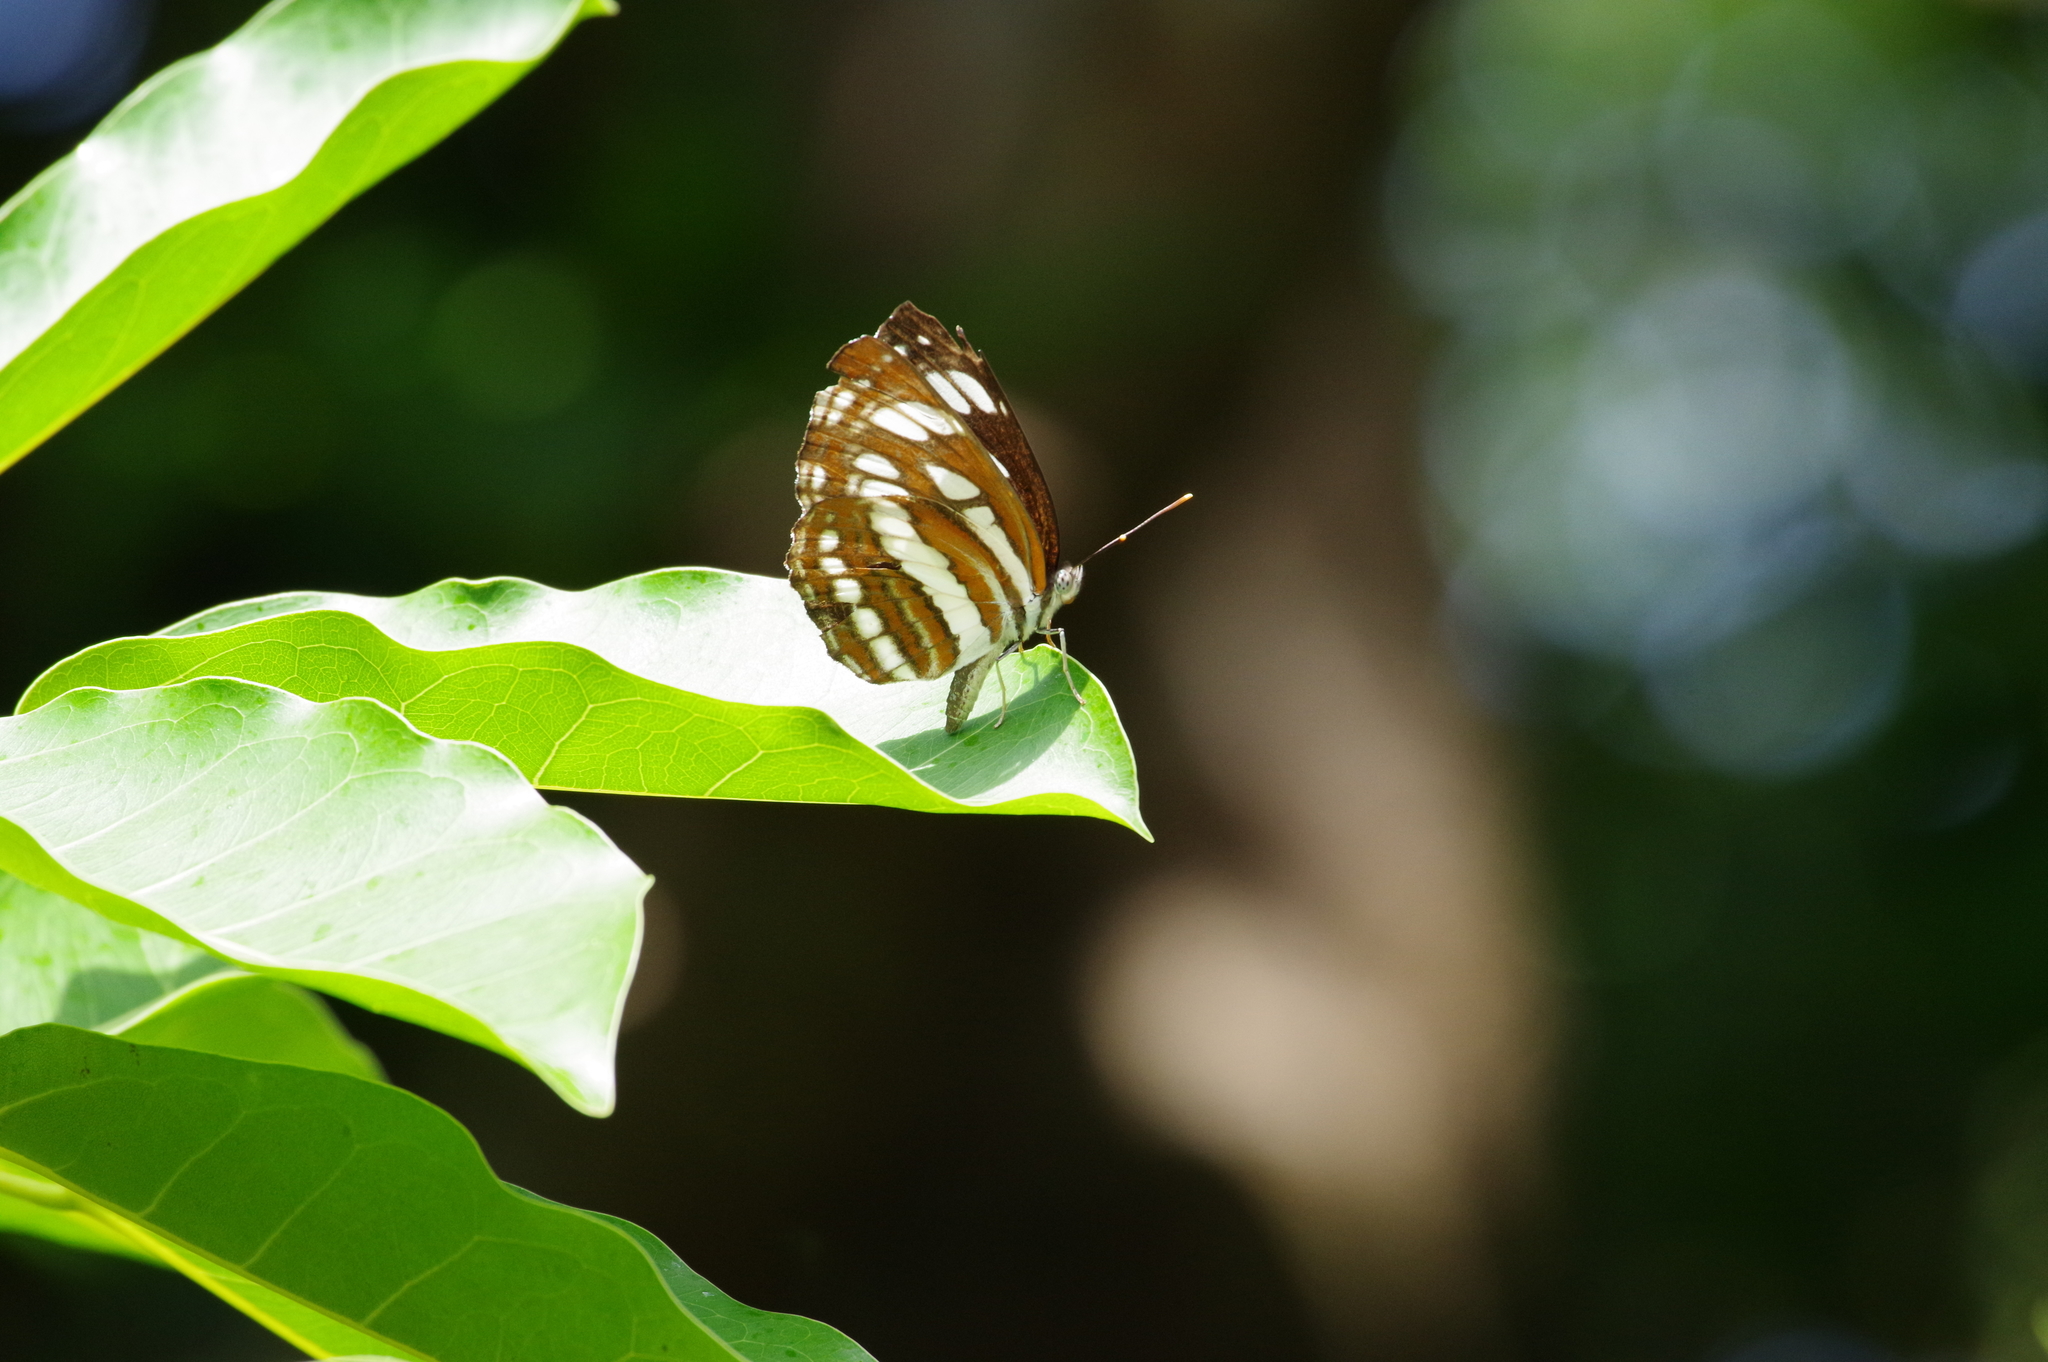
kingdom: Animalia
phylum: Arthropoda
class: Insecta
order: Lepidoptera
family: Nymphalidae
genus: Neptis
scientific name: Neptis hylas
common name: Common sailer
